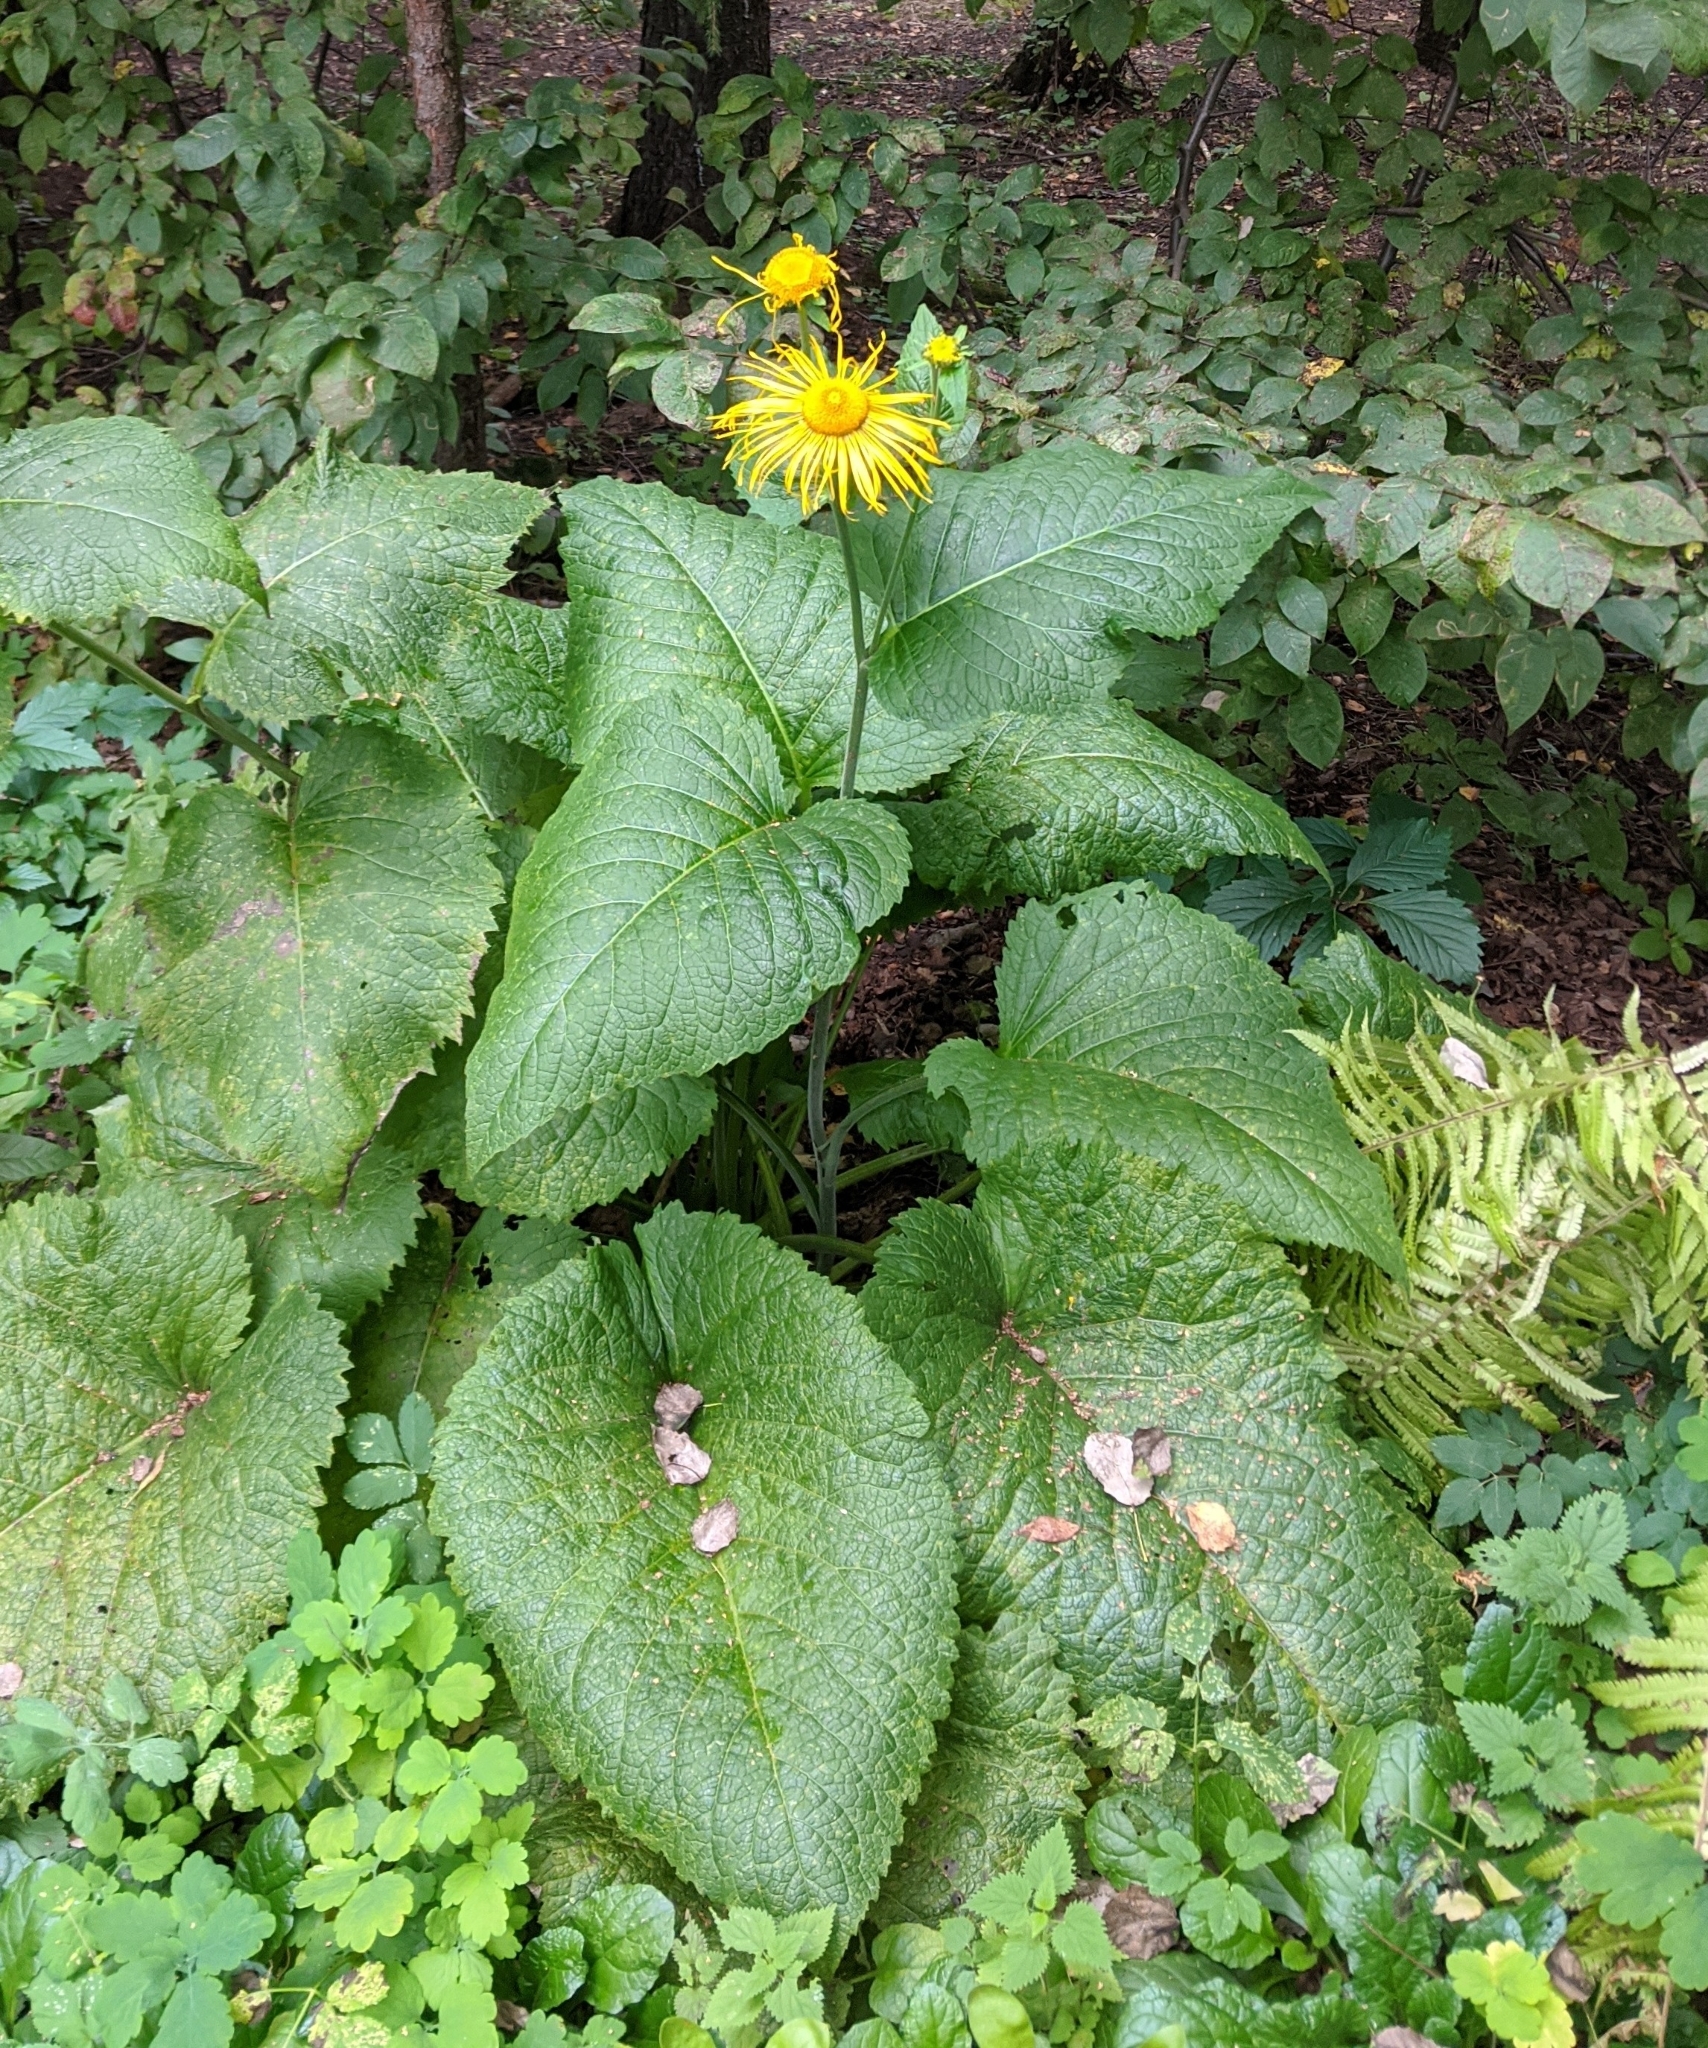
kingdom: Plantae
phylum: Tracheophyta
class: Magnoliopsida
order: Asterales
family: Asteraceae
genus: Telekia
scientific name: Telekia speciosa
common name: Yellow oxeye
